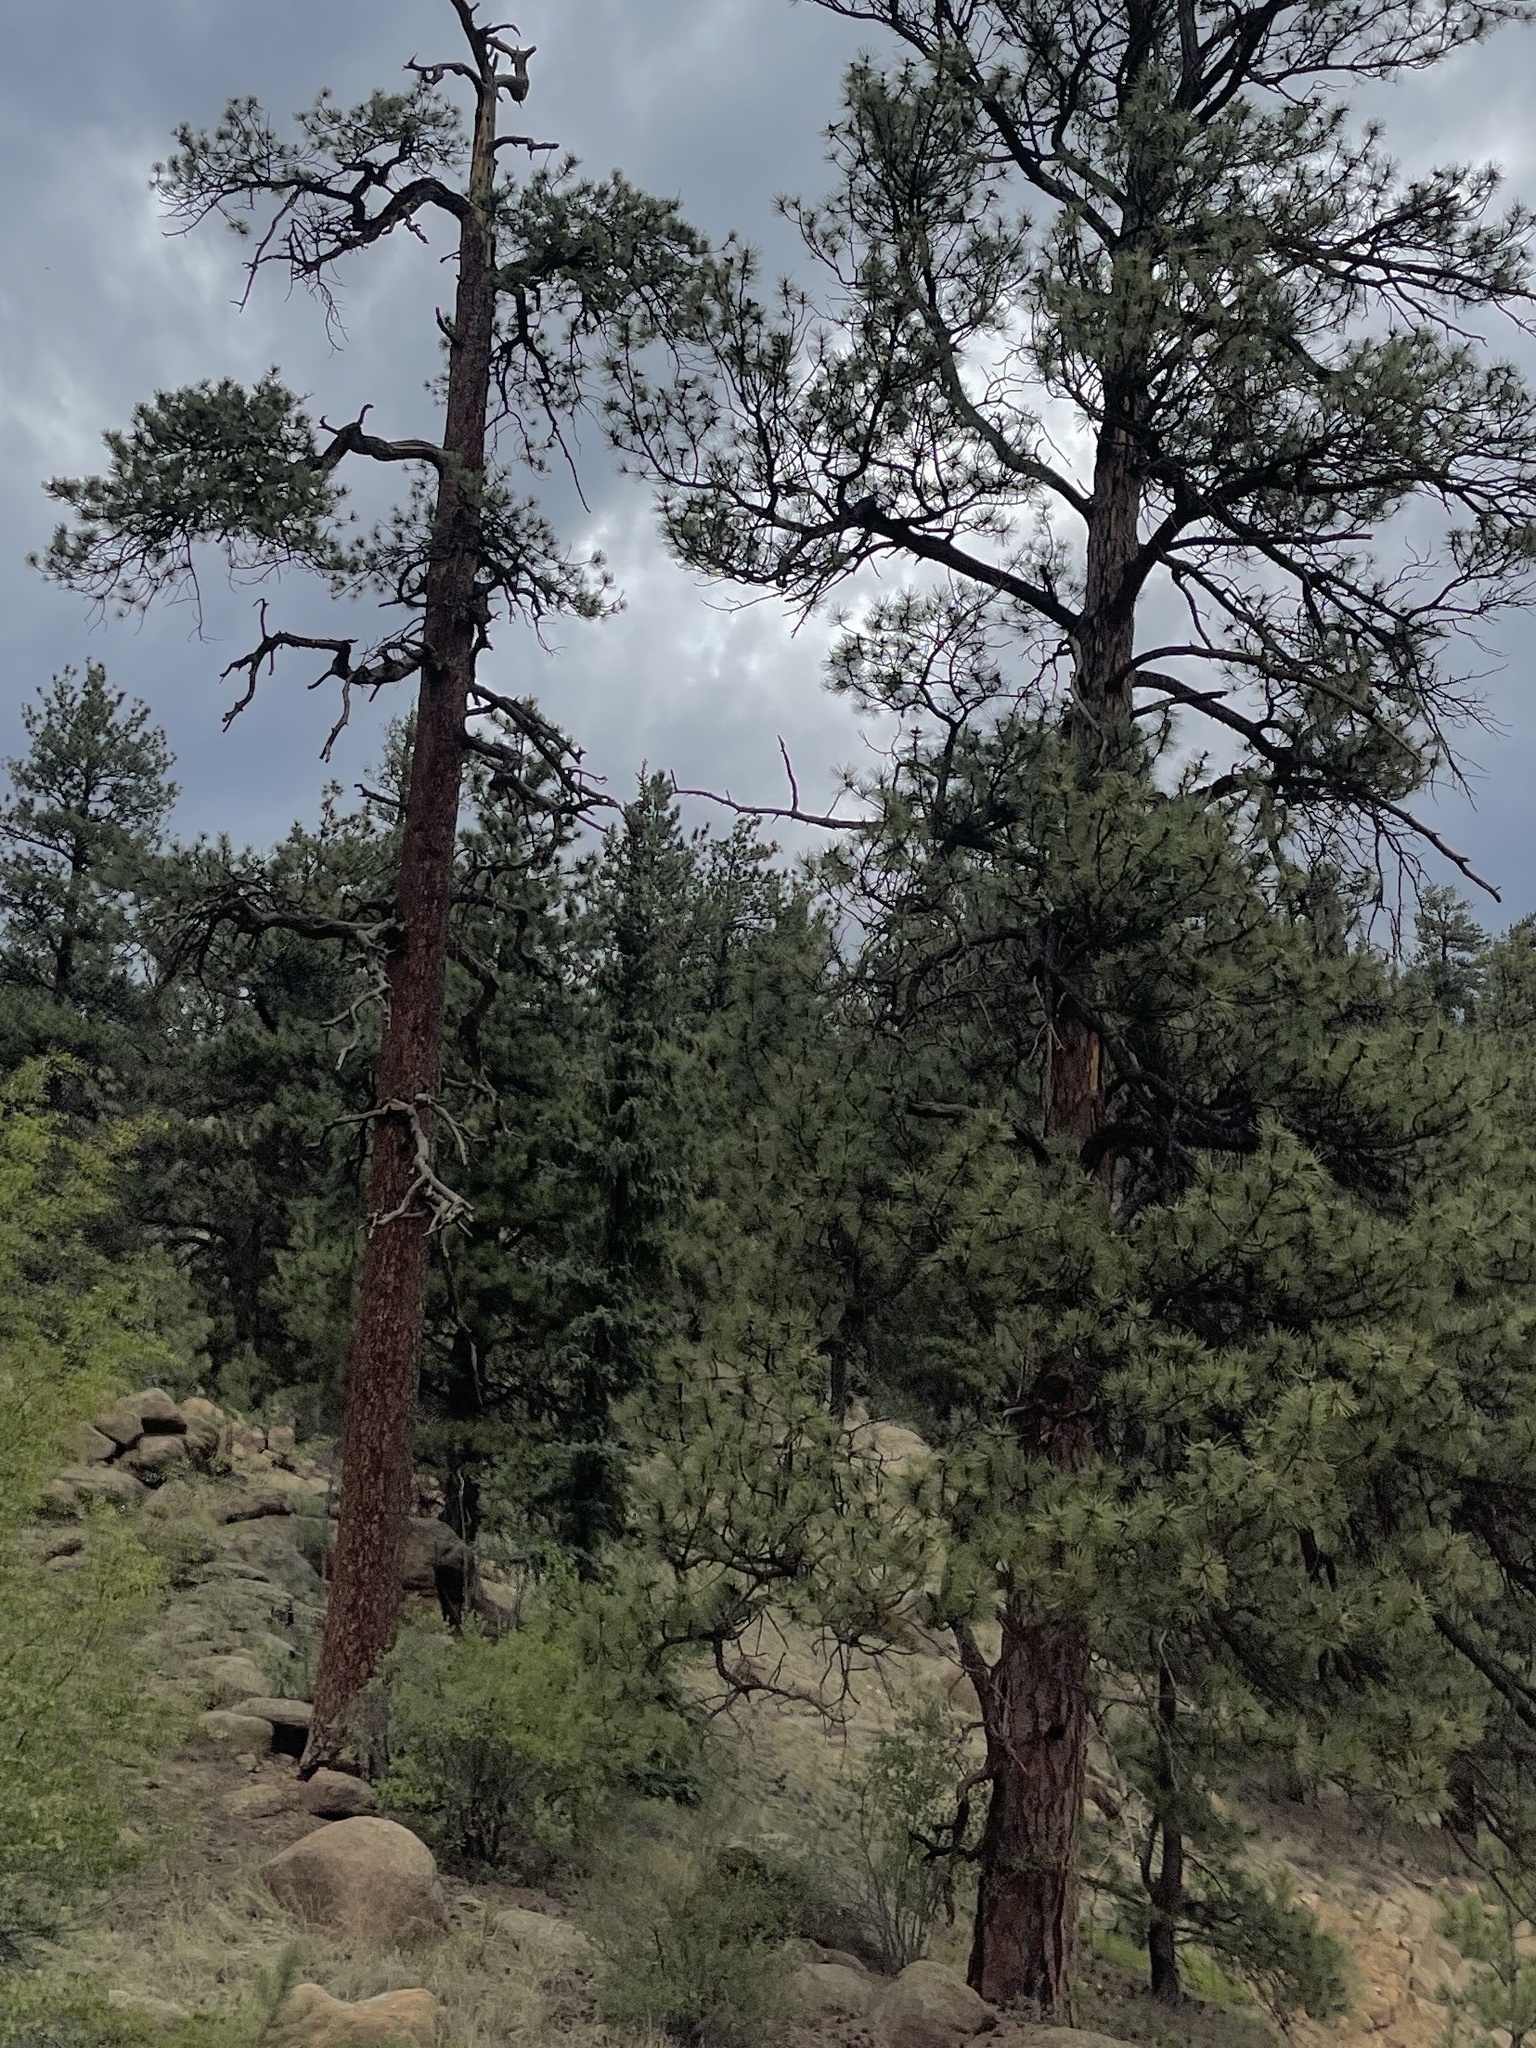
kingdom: Plantae
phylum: Tracheophyta
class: Pinopsida
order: Pinales
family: Pinaceae
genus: Pinus
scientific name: Pinus ponderosa
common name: Western yellow-pine
